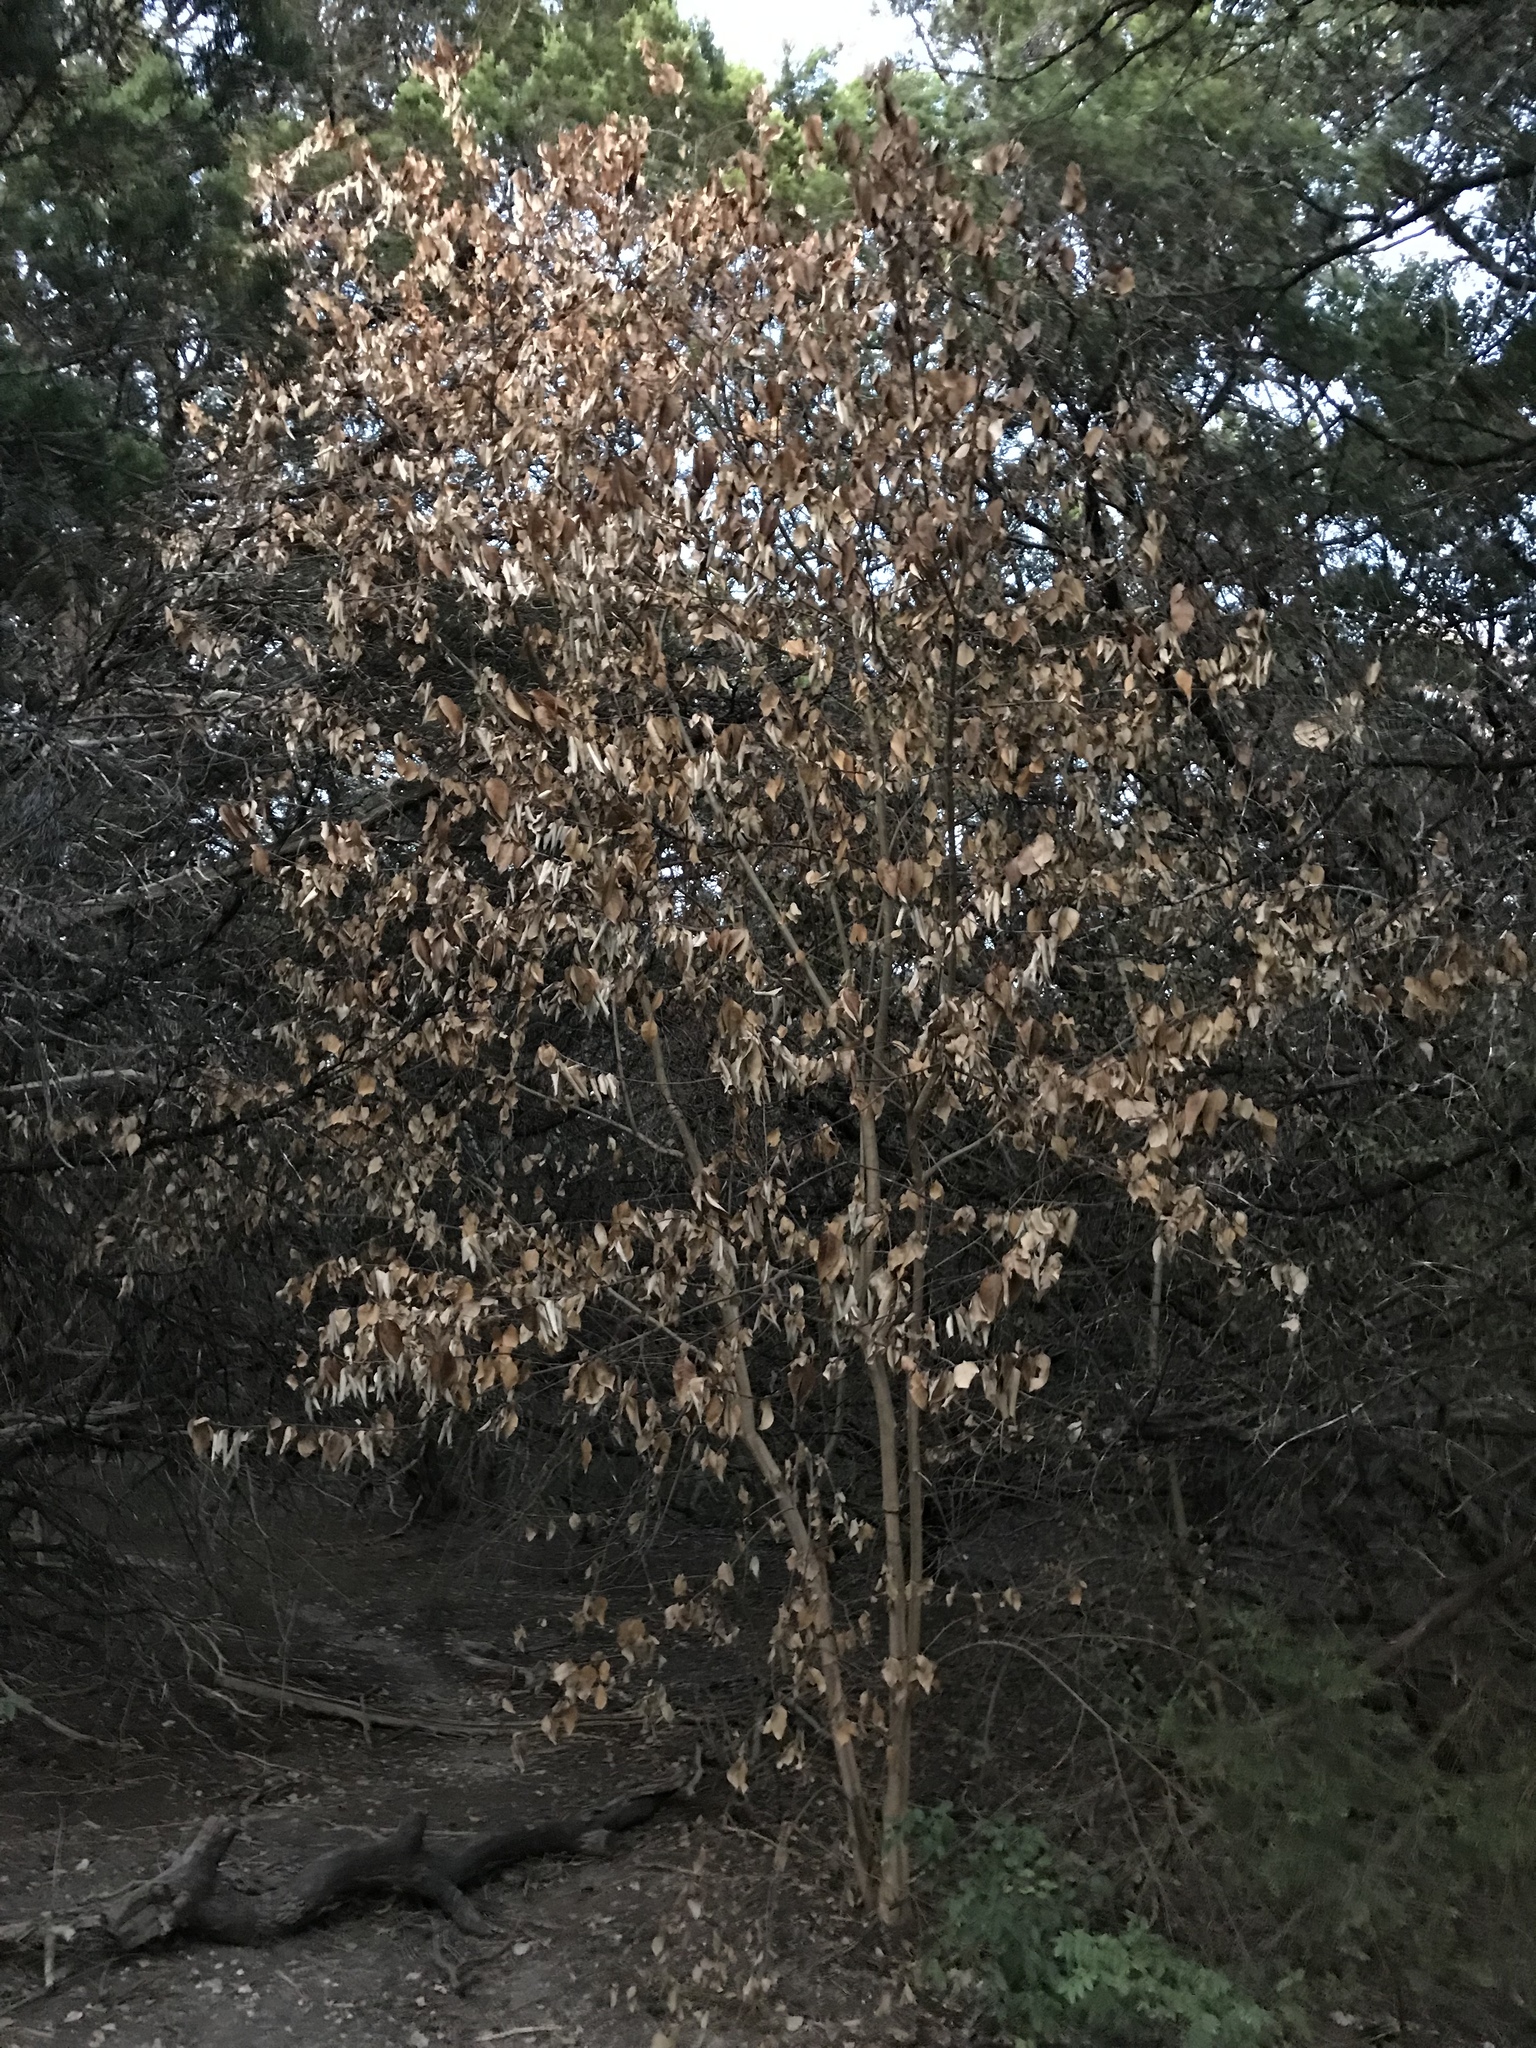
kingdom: Plantae
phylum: Tracheophyta
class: Magnoliopsida
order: Lamiales
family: Oleaceae
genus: Ligustrum
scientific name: Ligustrum lucidum
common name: Glossy privet
